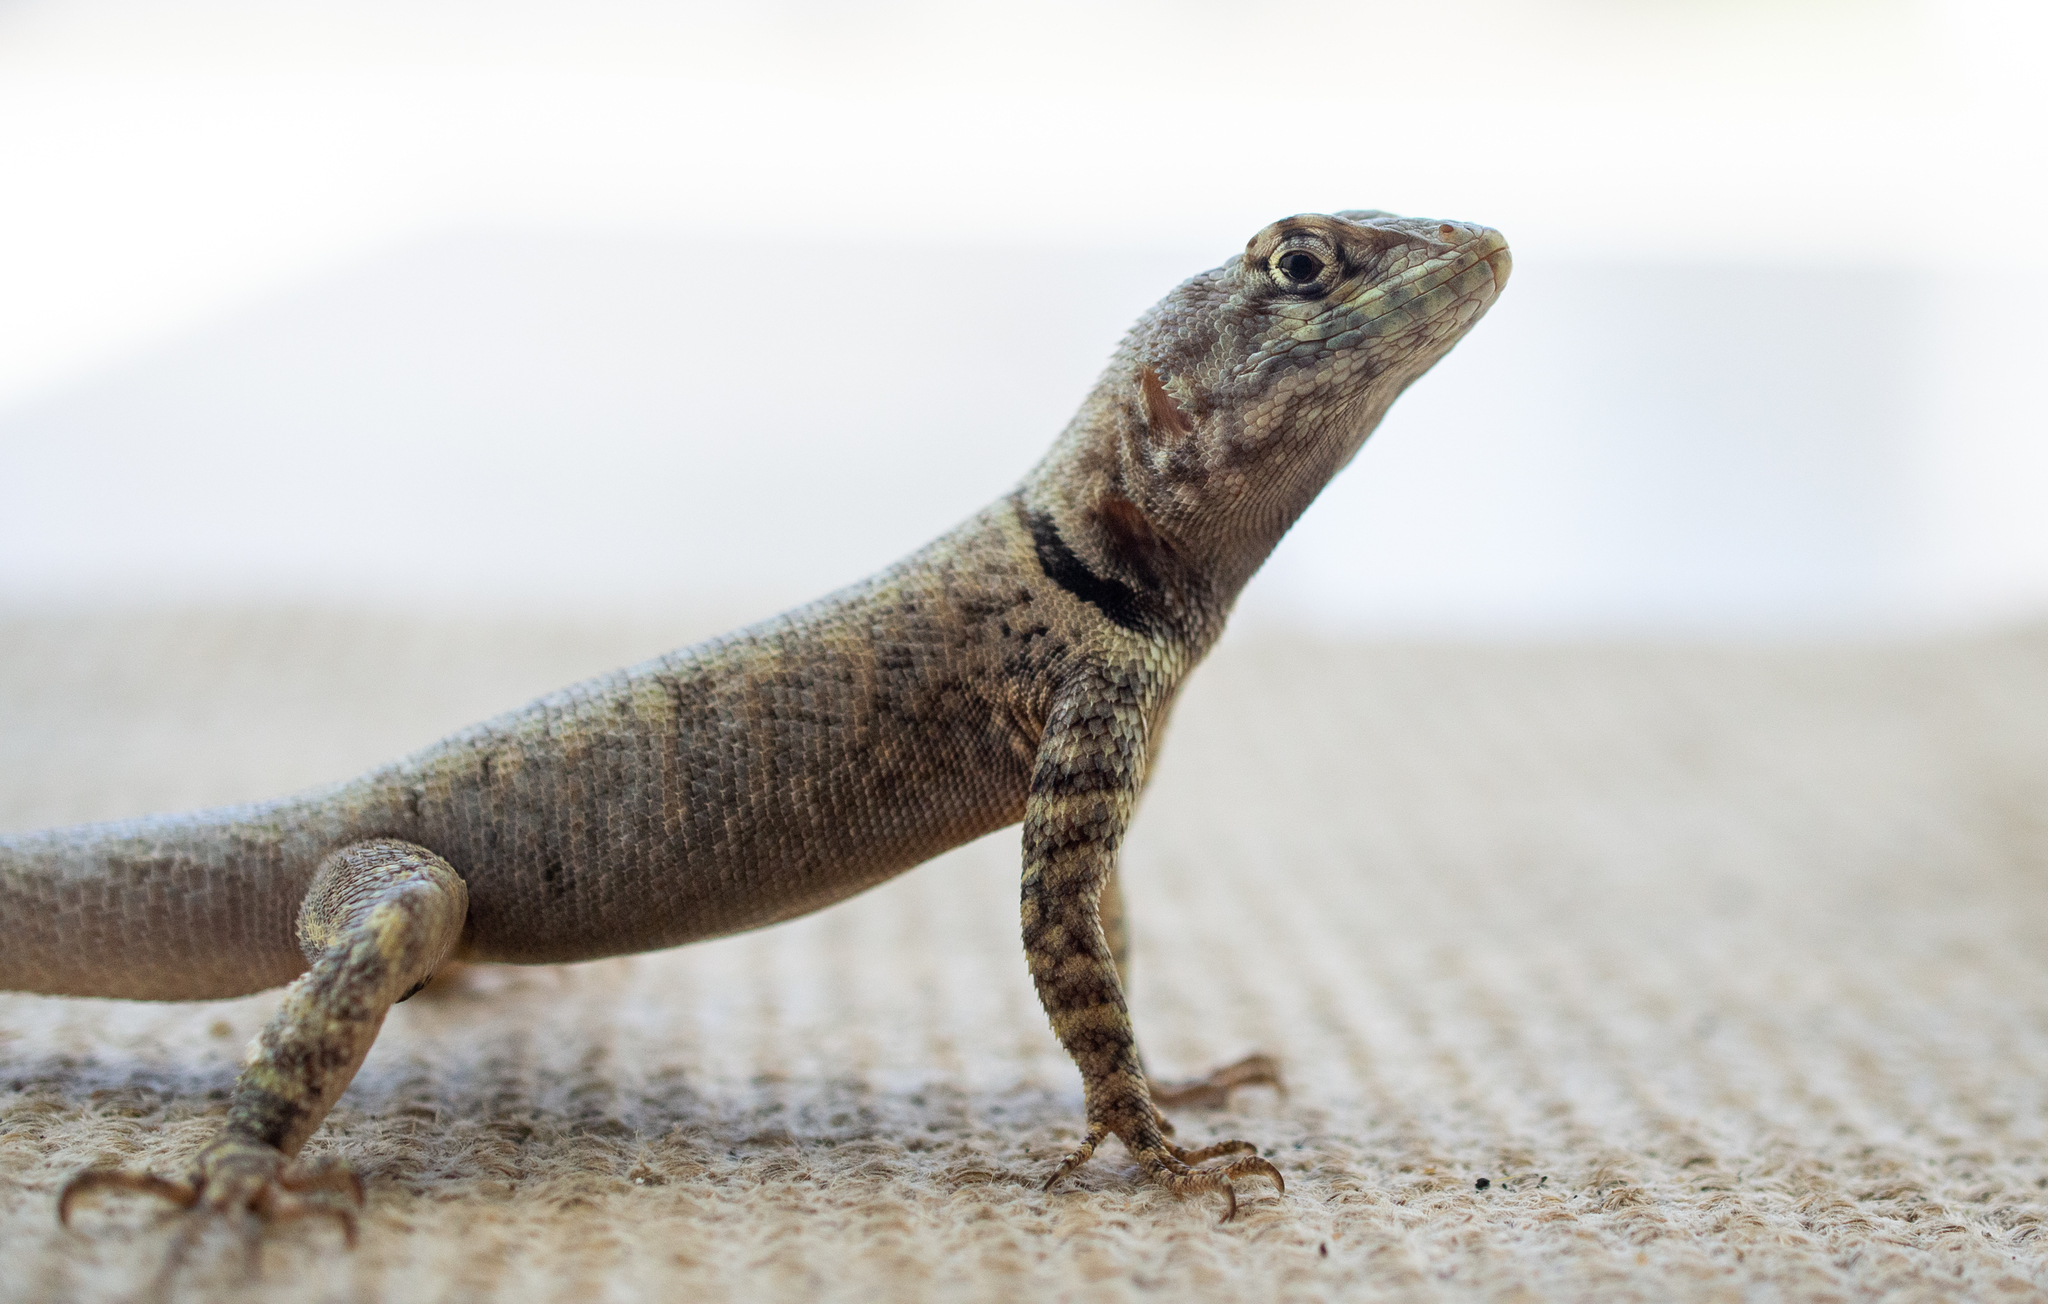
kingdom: Animalia
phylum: Chordata
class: Squamata
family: Tropiduridae
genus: Tropidurus
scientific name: Tropidurus hispidus
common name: Peters' lava lizard
